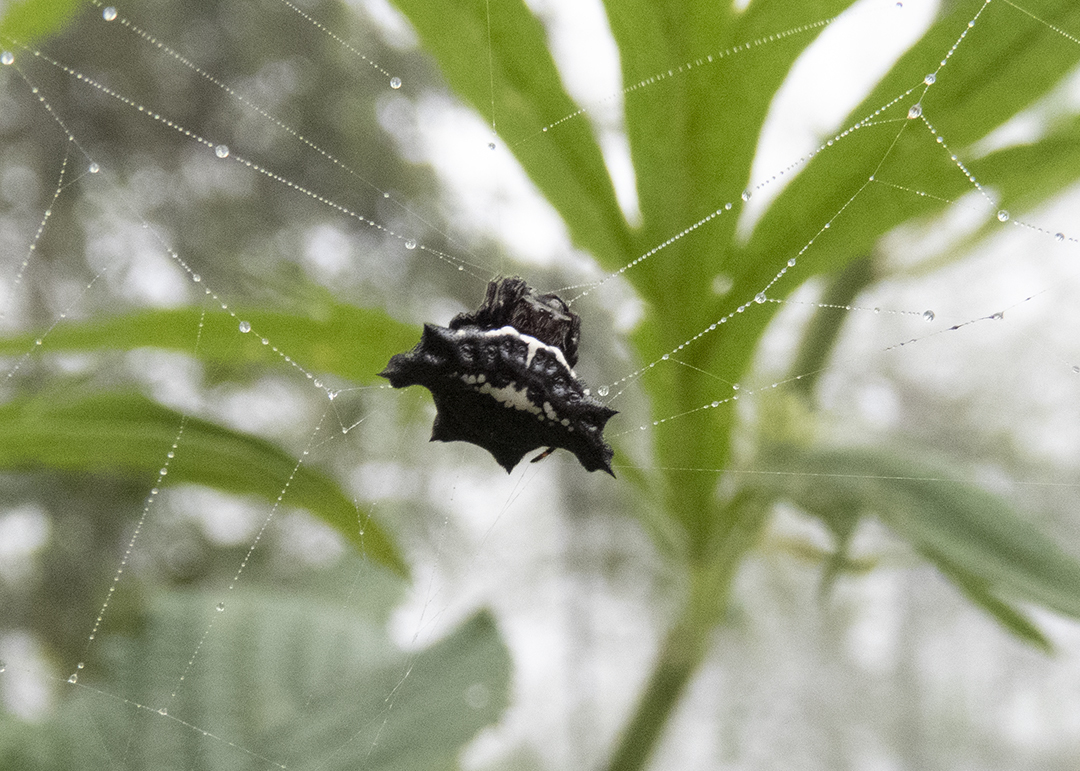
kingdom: Animalia
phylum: Arthropoda
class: Arachnida
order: Araneae
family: Araneidae
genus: Gasteracantha
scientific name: Gasteracantha unguifera
